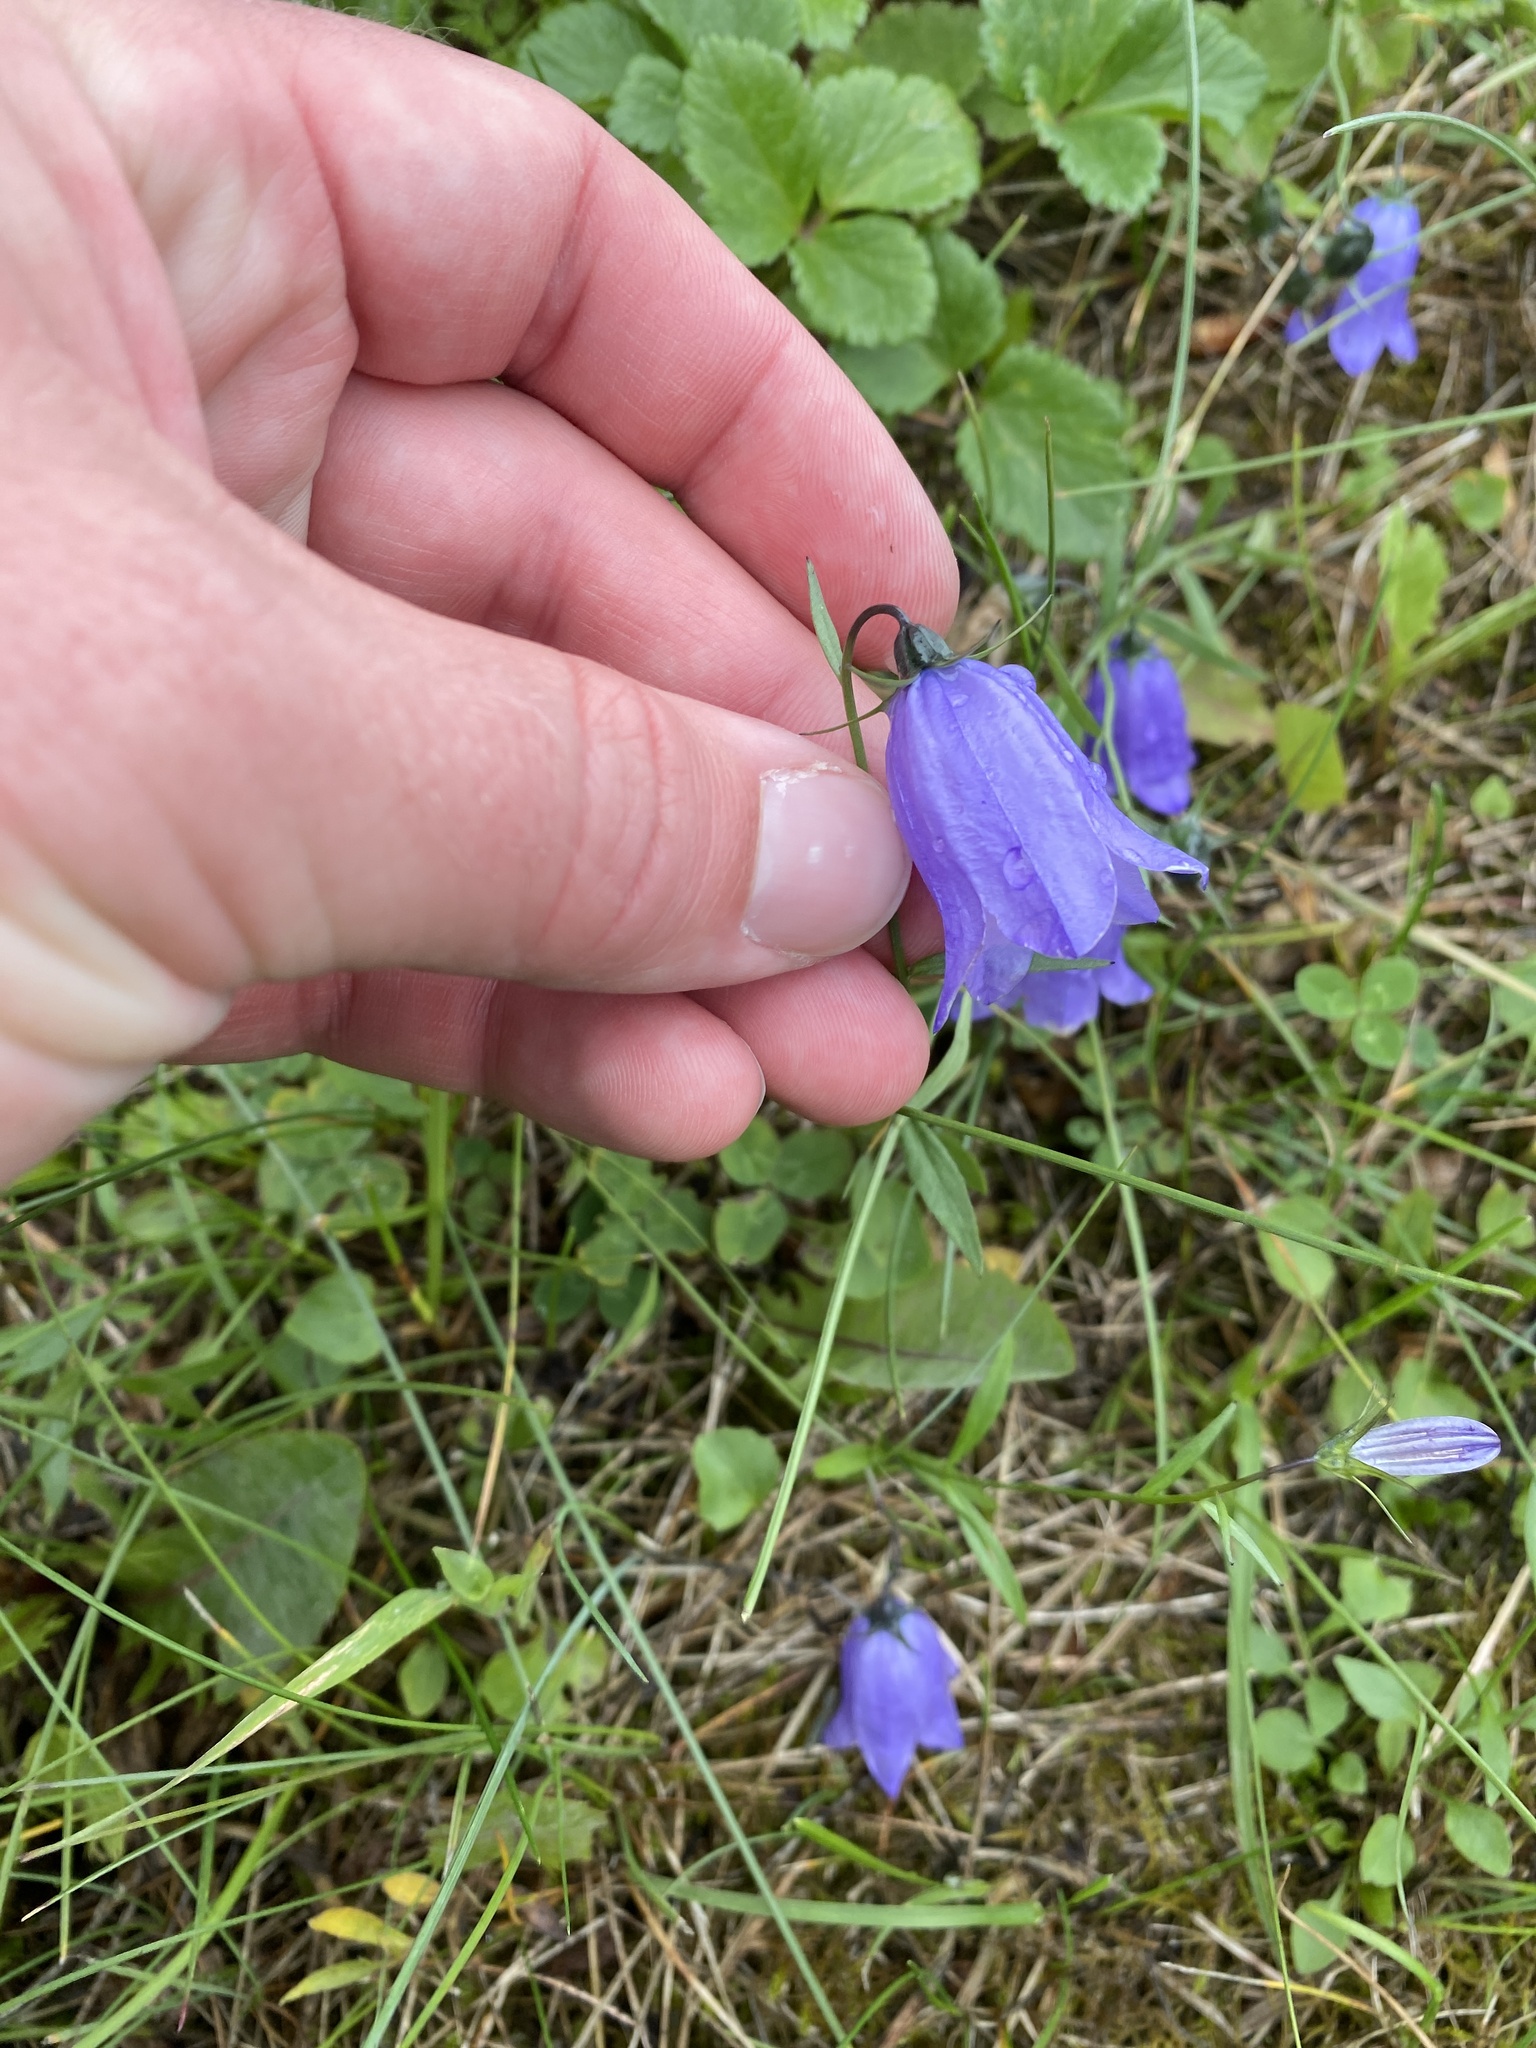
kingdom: Plantae
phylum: Tracheophyta
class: Magnoliopsida
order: Asterales
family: Campanulaceae
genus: Campanula
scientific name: Campanula alaskana
